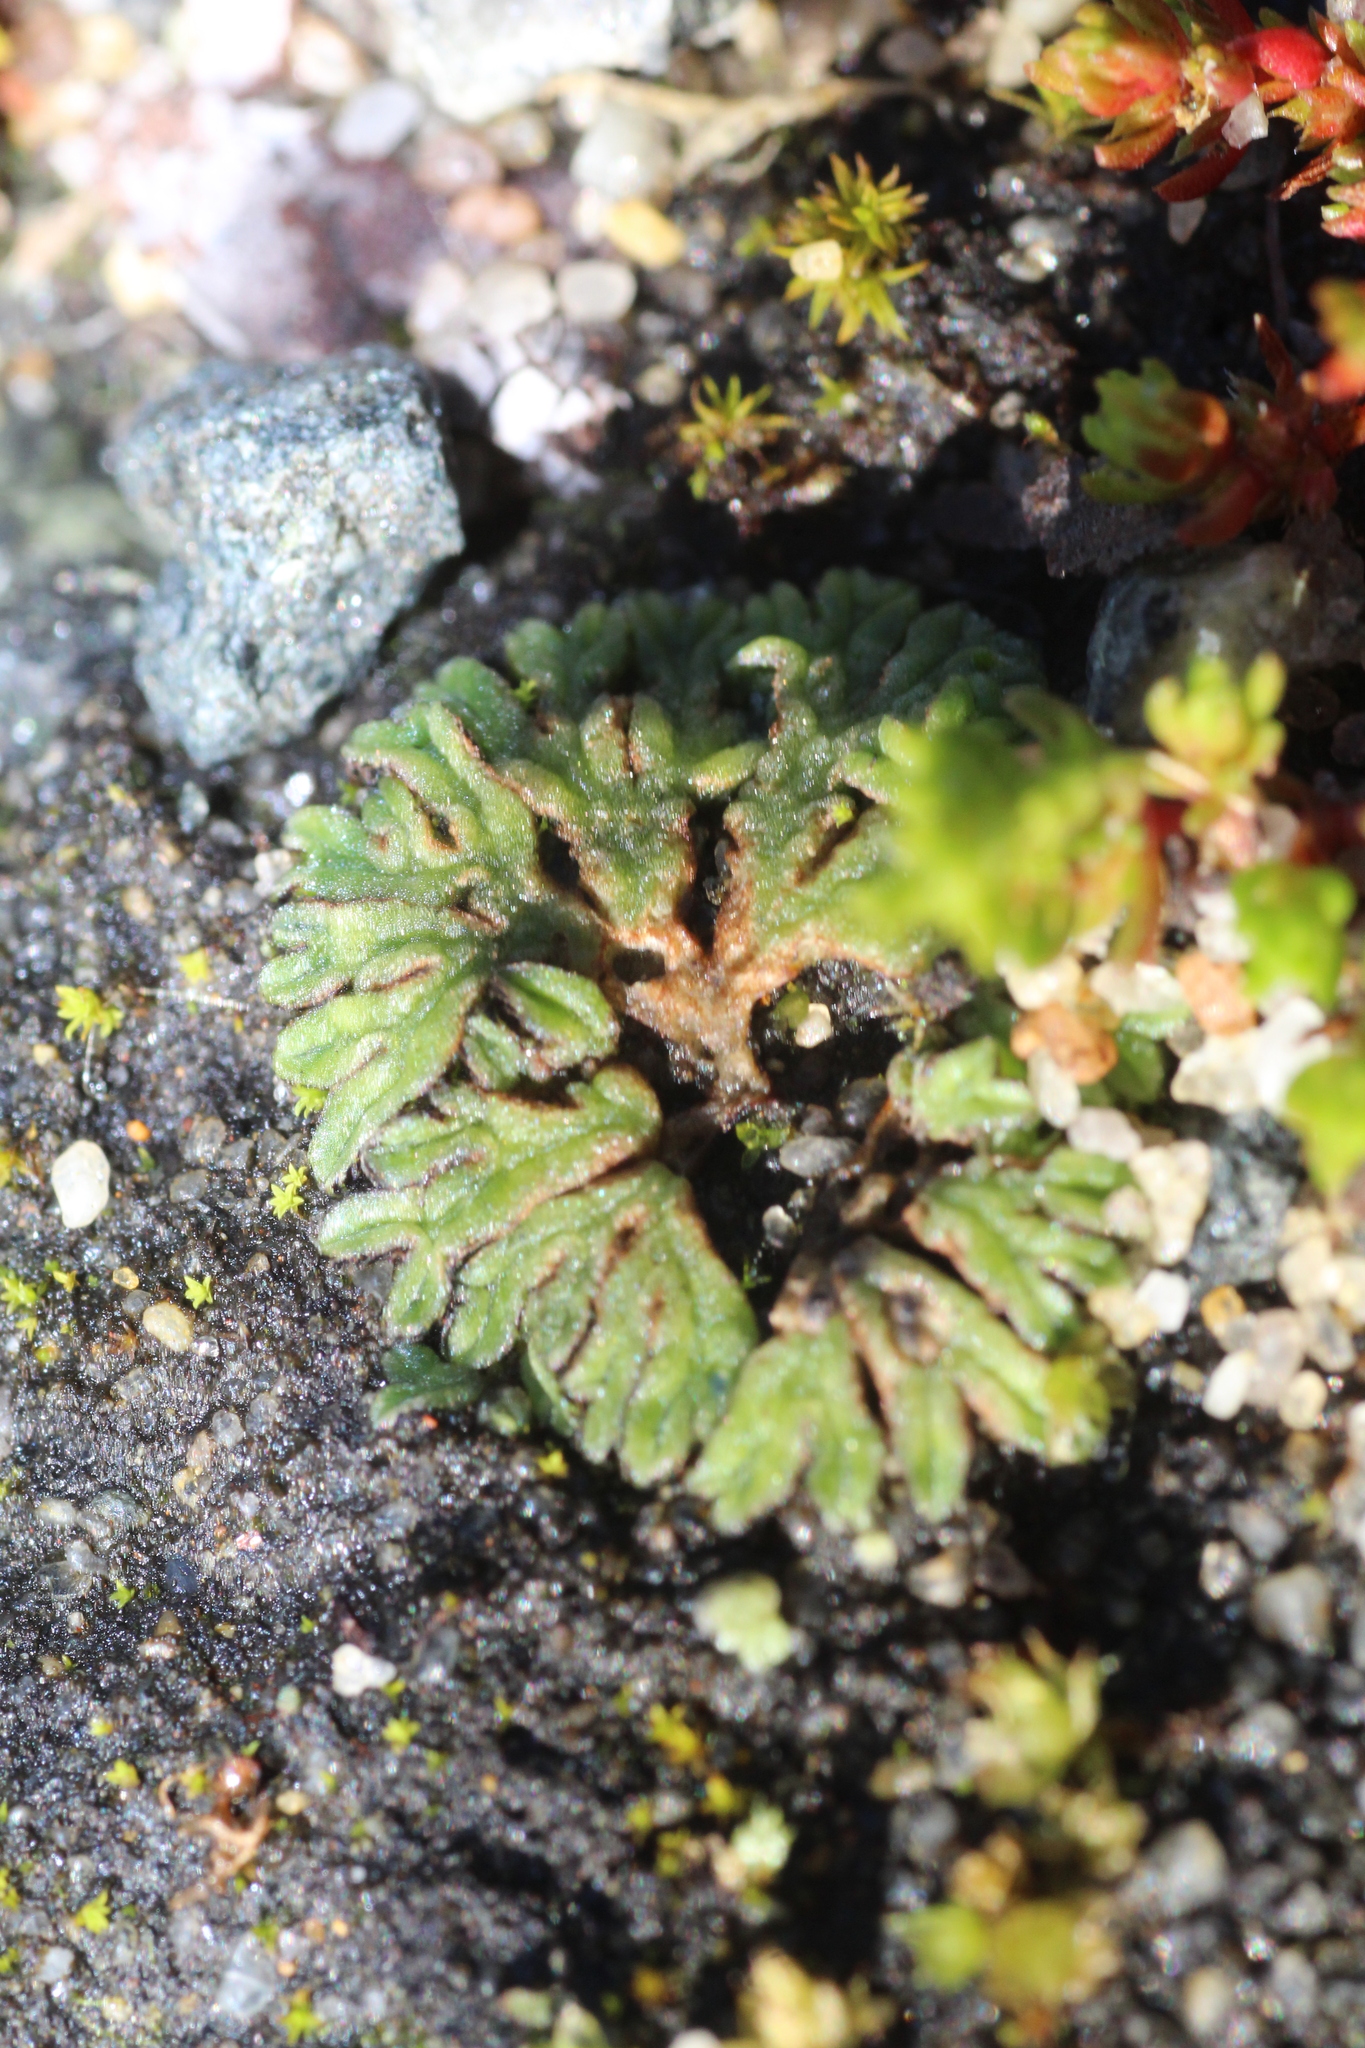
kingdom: Plantae
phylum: Marchantiophyta
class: Marchantiopsida
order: Marchantiales
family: Ricciaceae
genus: Riccia
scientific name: Riccia nigrella
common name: Black crystalwort
